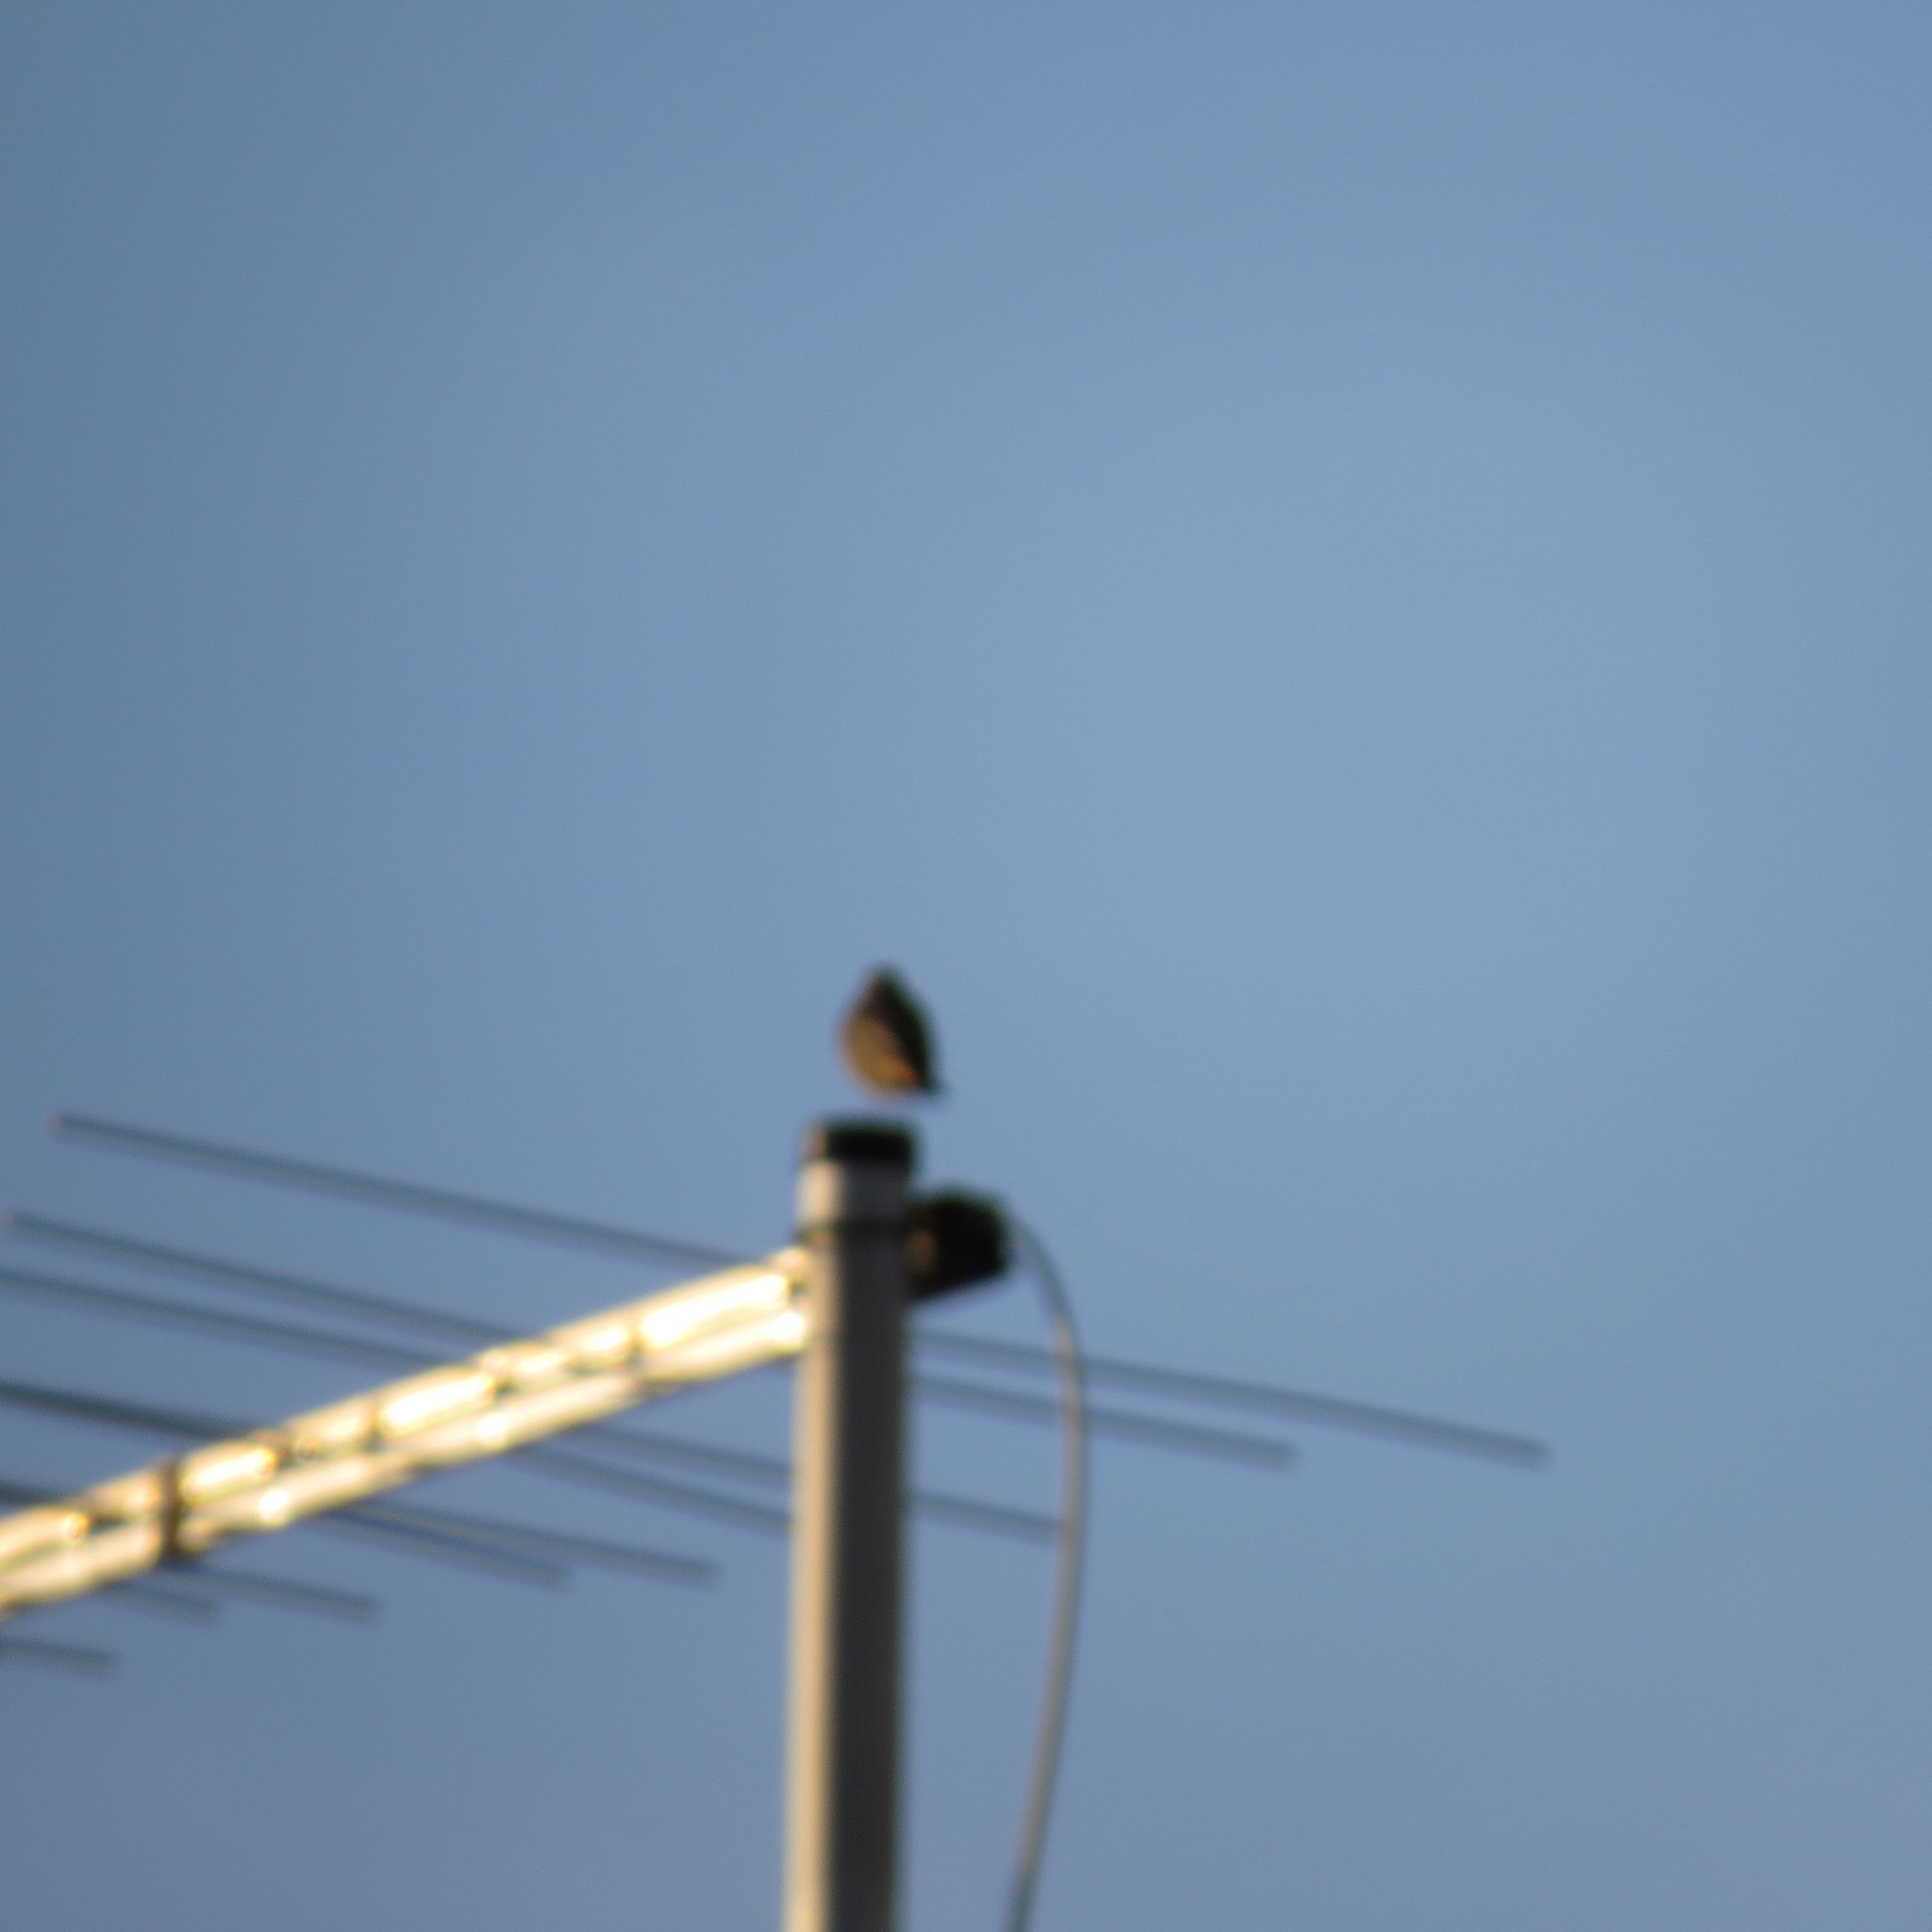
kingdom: Animalia
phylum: Chordata
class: Aves
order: Passeriformes
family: Muscicapidae
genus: Phoenicurus
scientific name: Phoenicurus ochruros
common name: Black redstart
